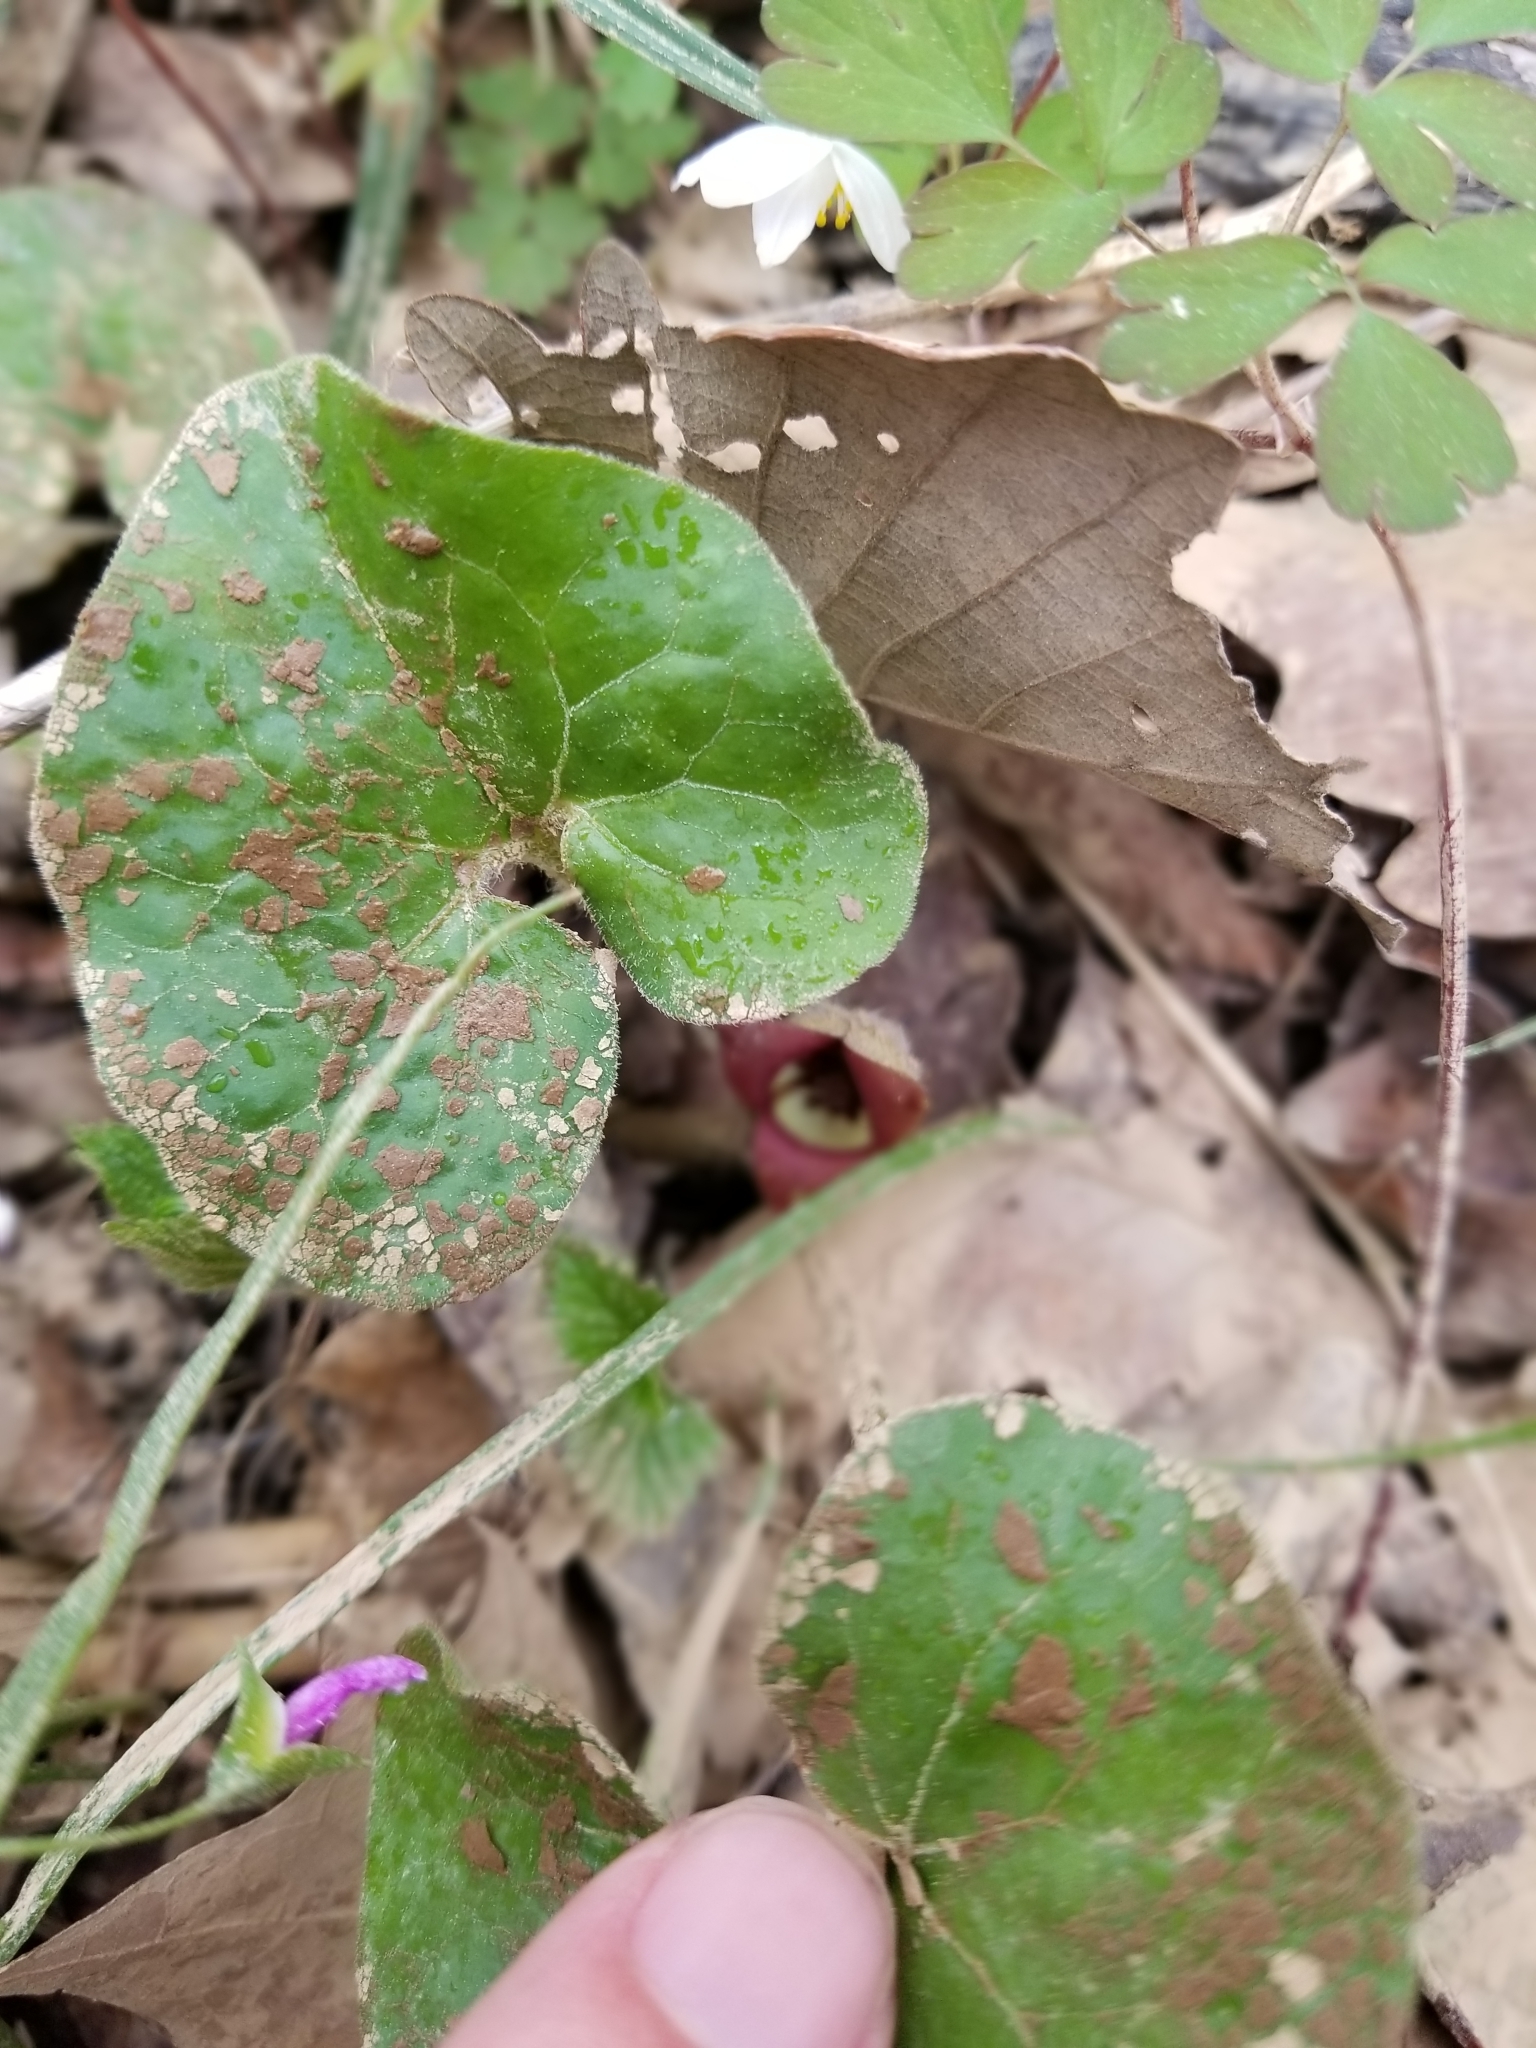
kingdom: Plantae
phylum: Tracheophyta
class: Magnoliopsida
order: Piperales
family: Aristolochiaceae
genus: Asarum
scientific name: Asarum canadense
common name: Wild ginger
